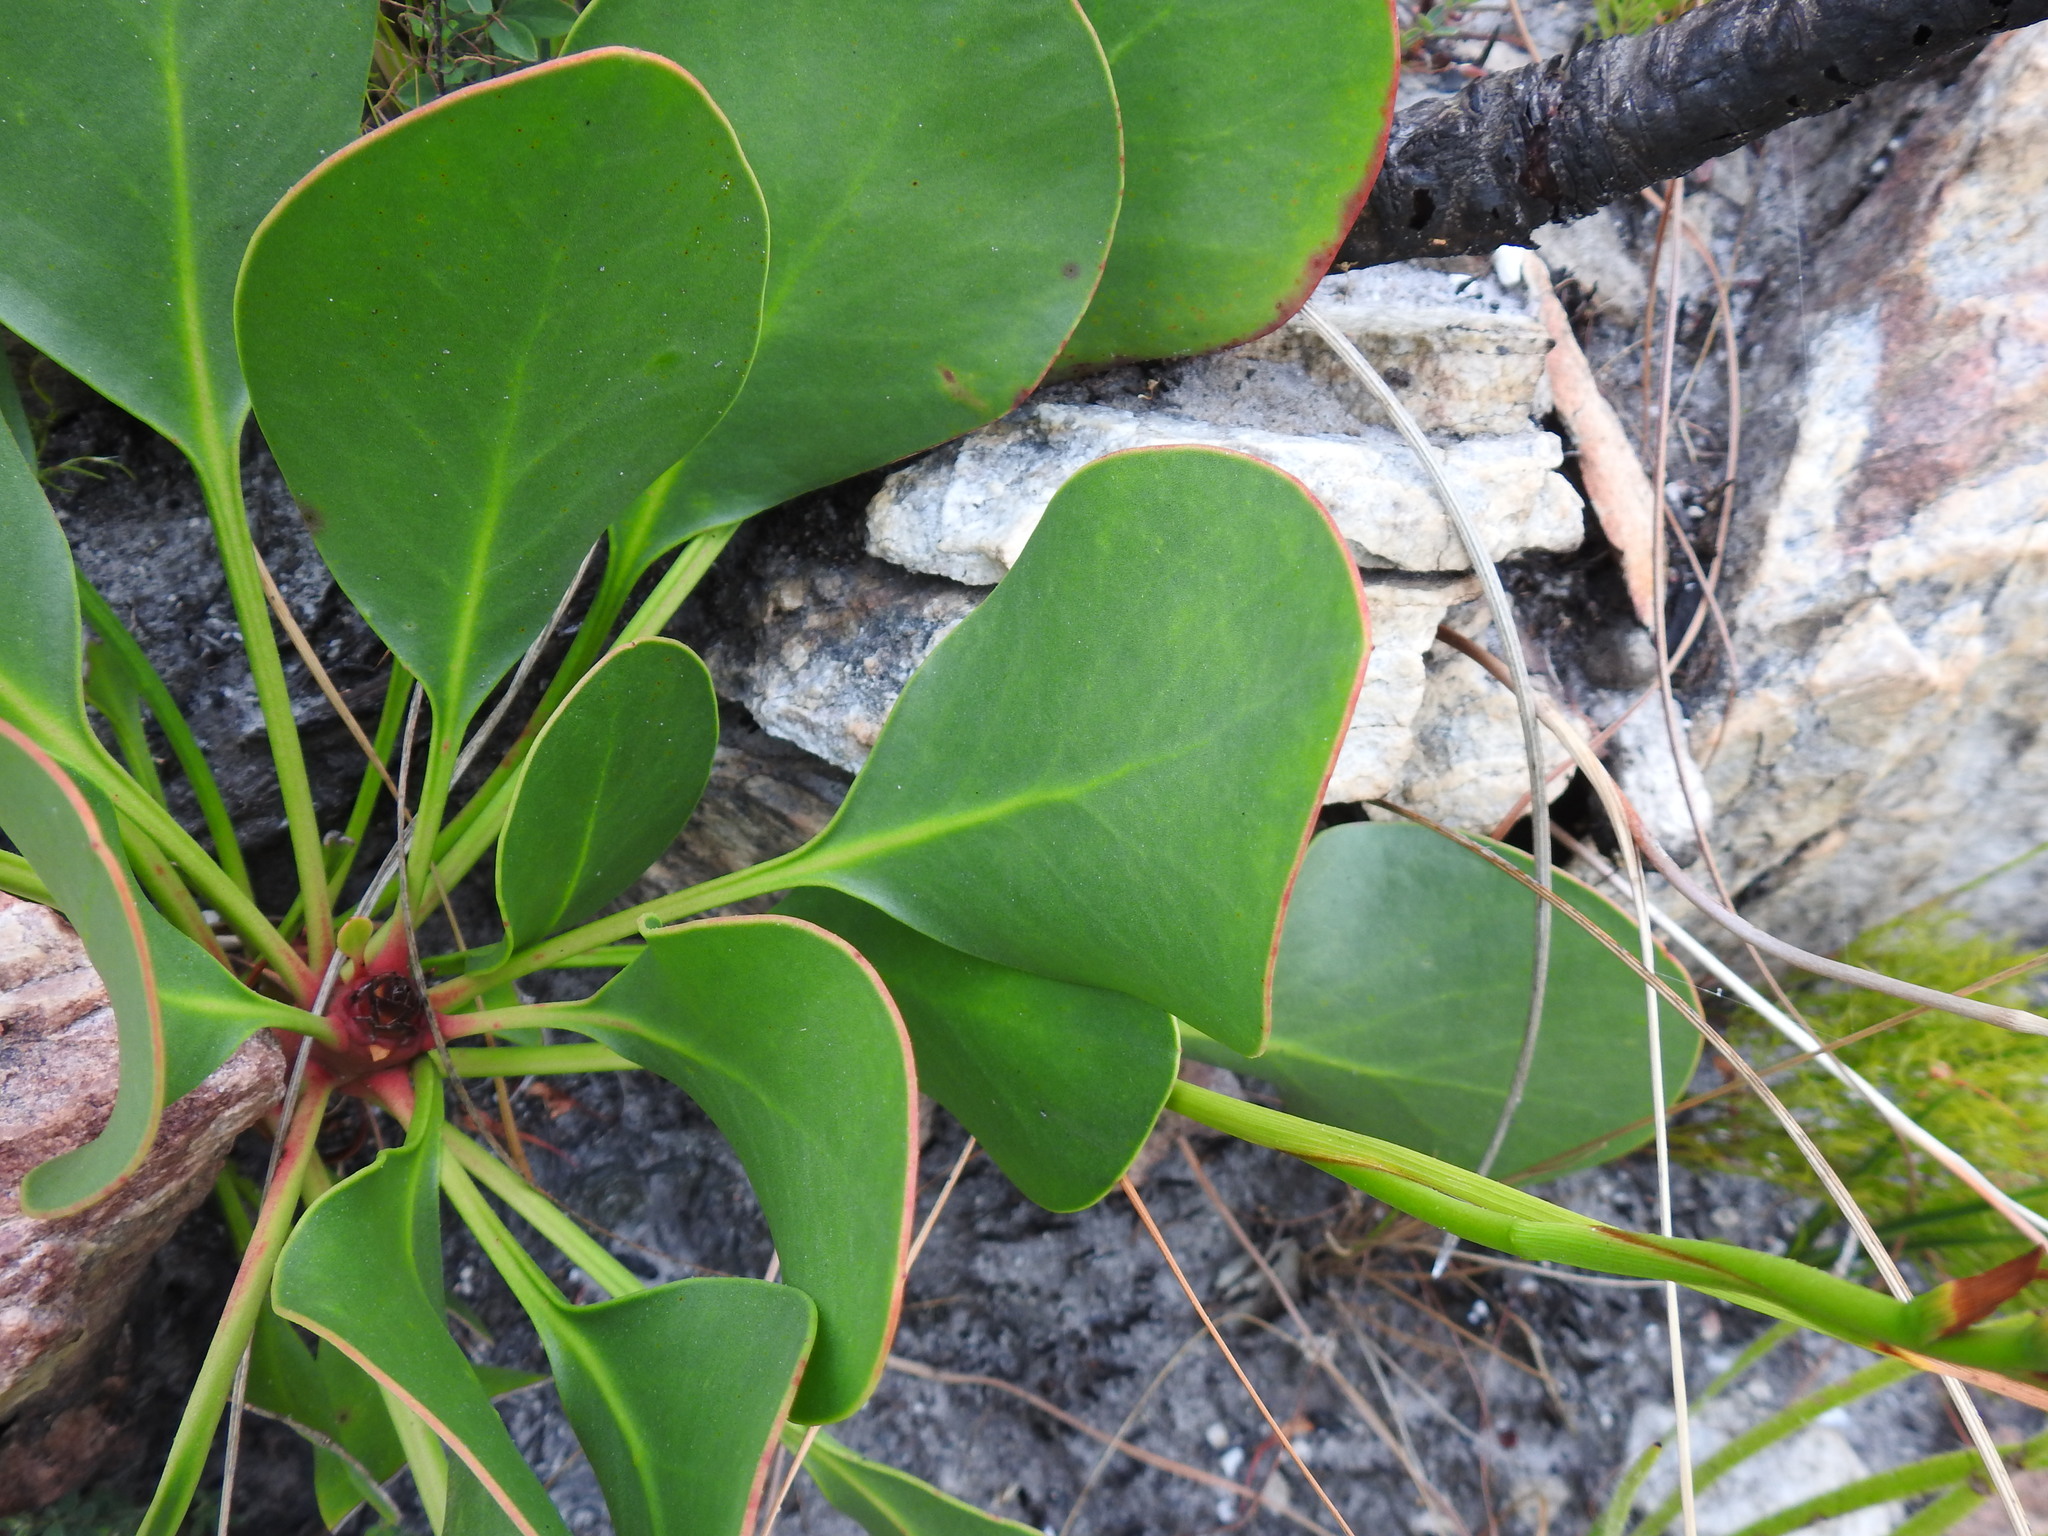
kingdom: Plantae
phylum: Tracheophyta
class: Magnoliopsida
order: Proteales
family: Proteaceae
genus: Protea
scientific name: Protea cynaroides
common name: King protea
